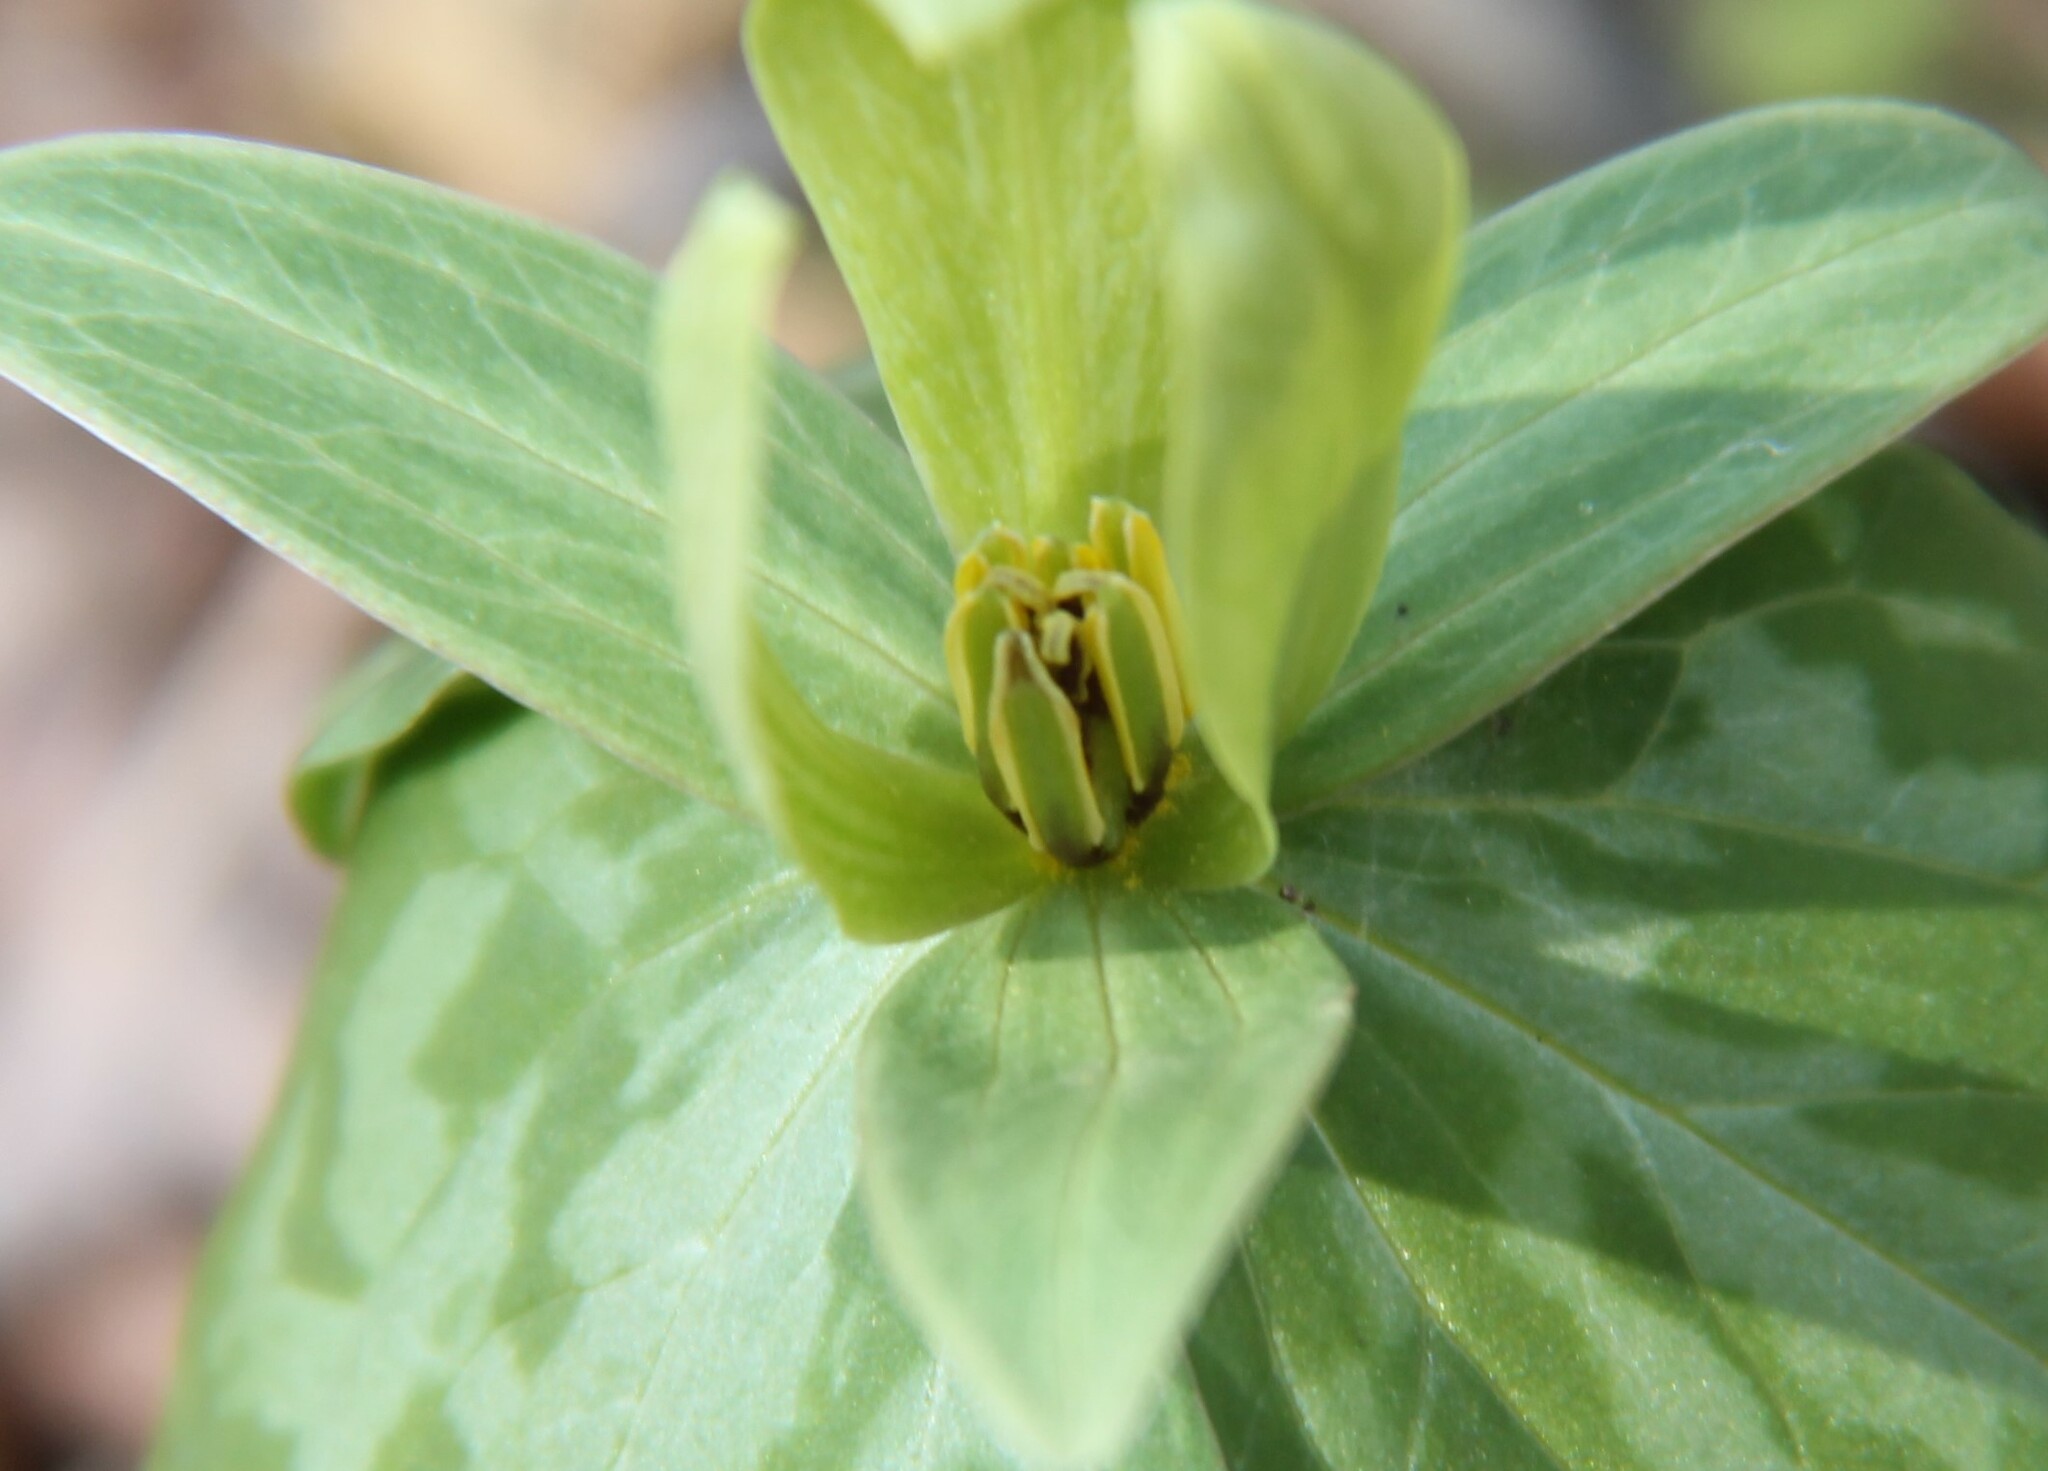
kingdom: Plantae
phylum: Tracheophyta
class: Liliopsida
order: Liliales
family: Melanthiaceae
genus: Trillium
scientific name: Trillium cuneatum
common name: Cuneate trillium
